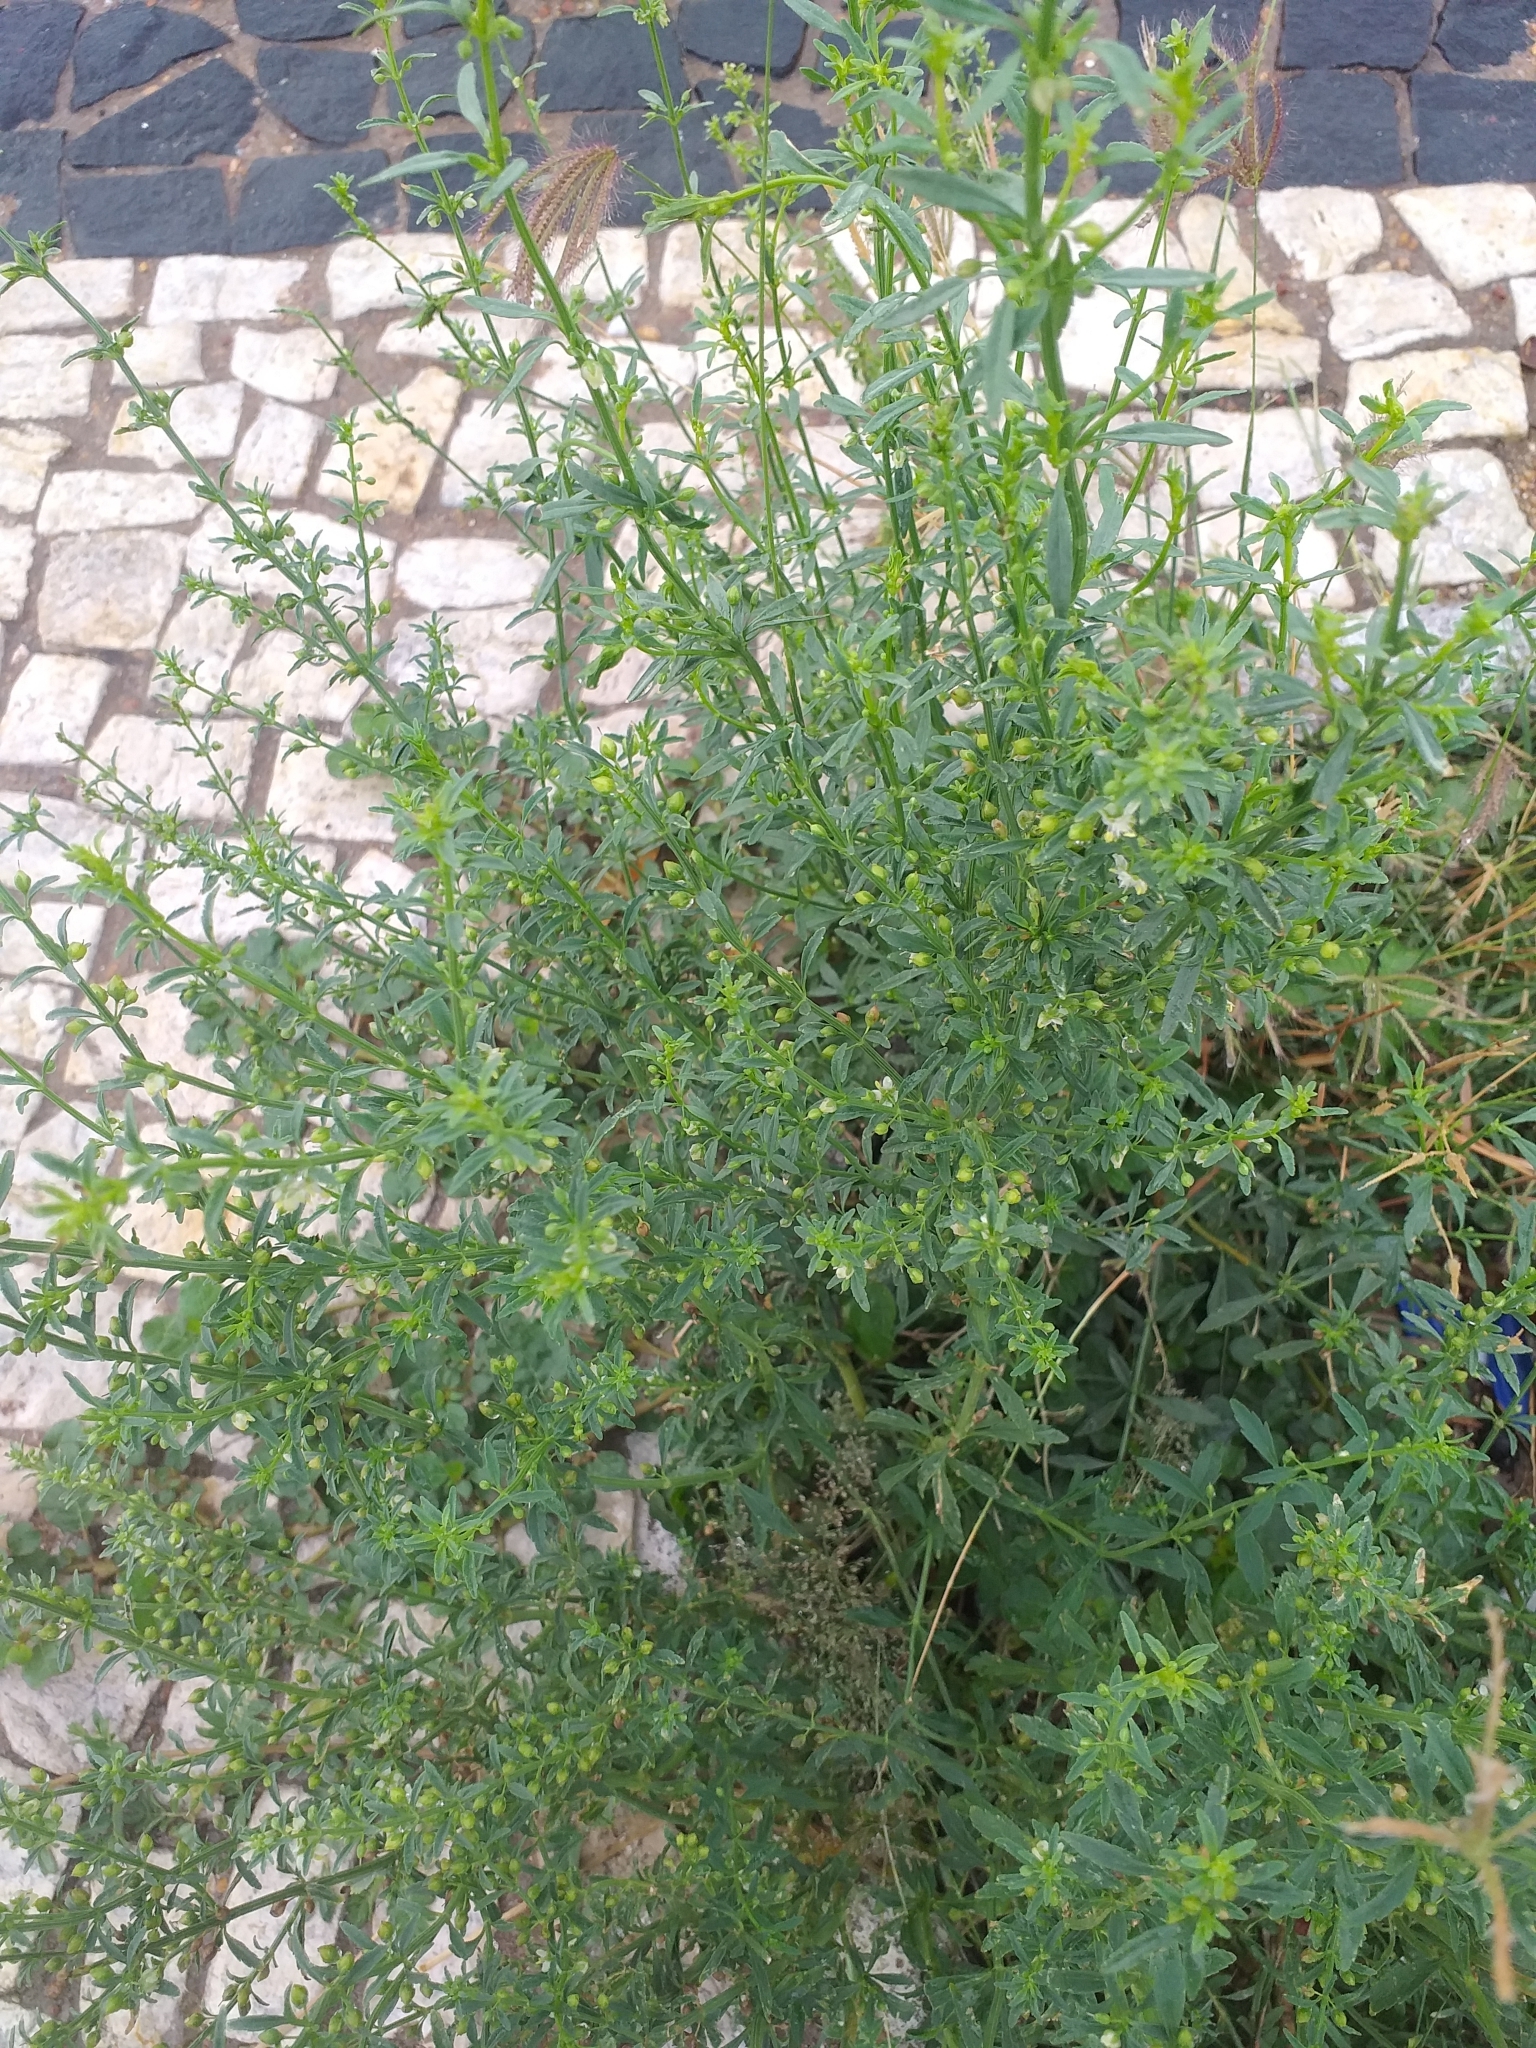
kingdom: Plantae
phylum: Tracheophyta
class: Magnoliopsida
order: Lamiales
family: Plantaginaceae
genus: Scoparia
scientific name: Scoparia dulcis
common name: Scoparia-weed
